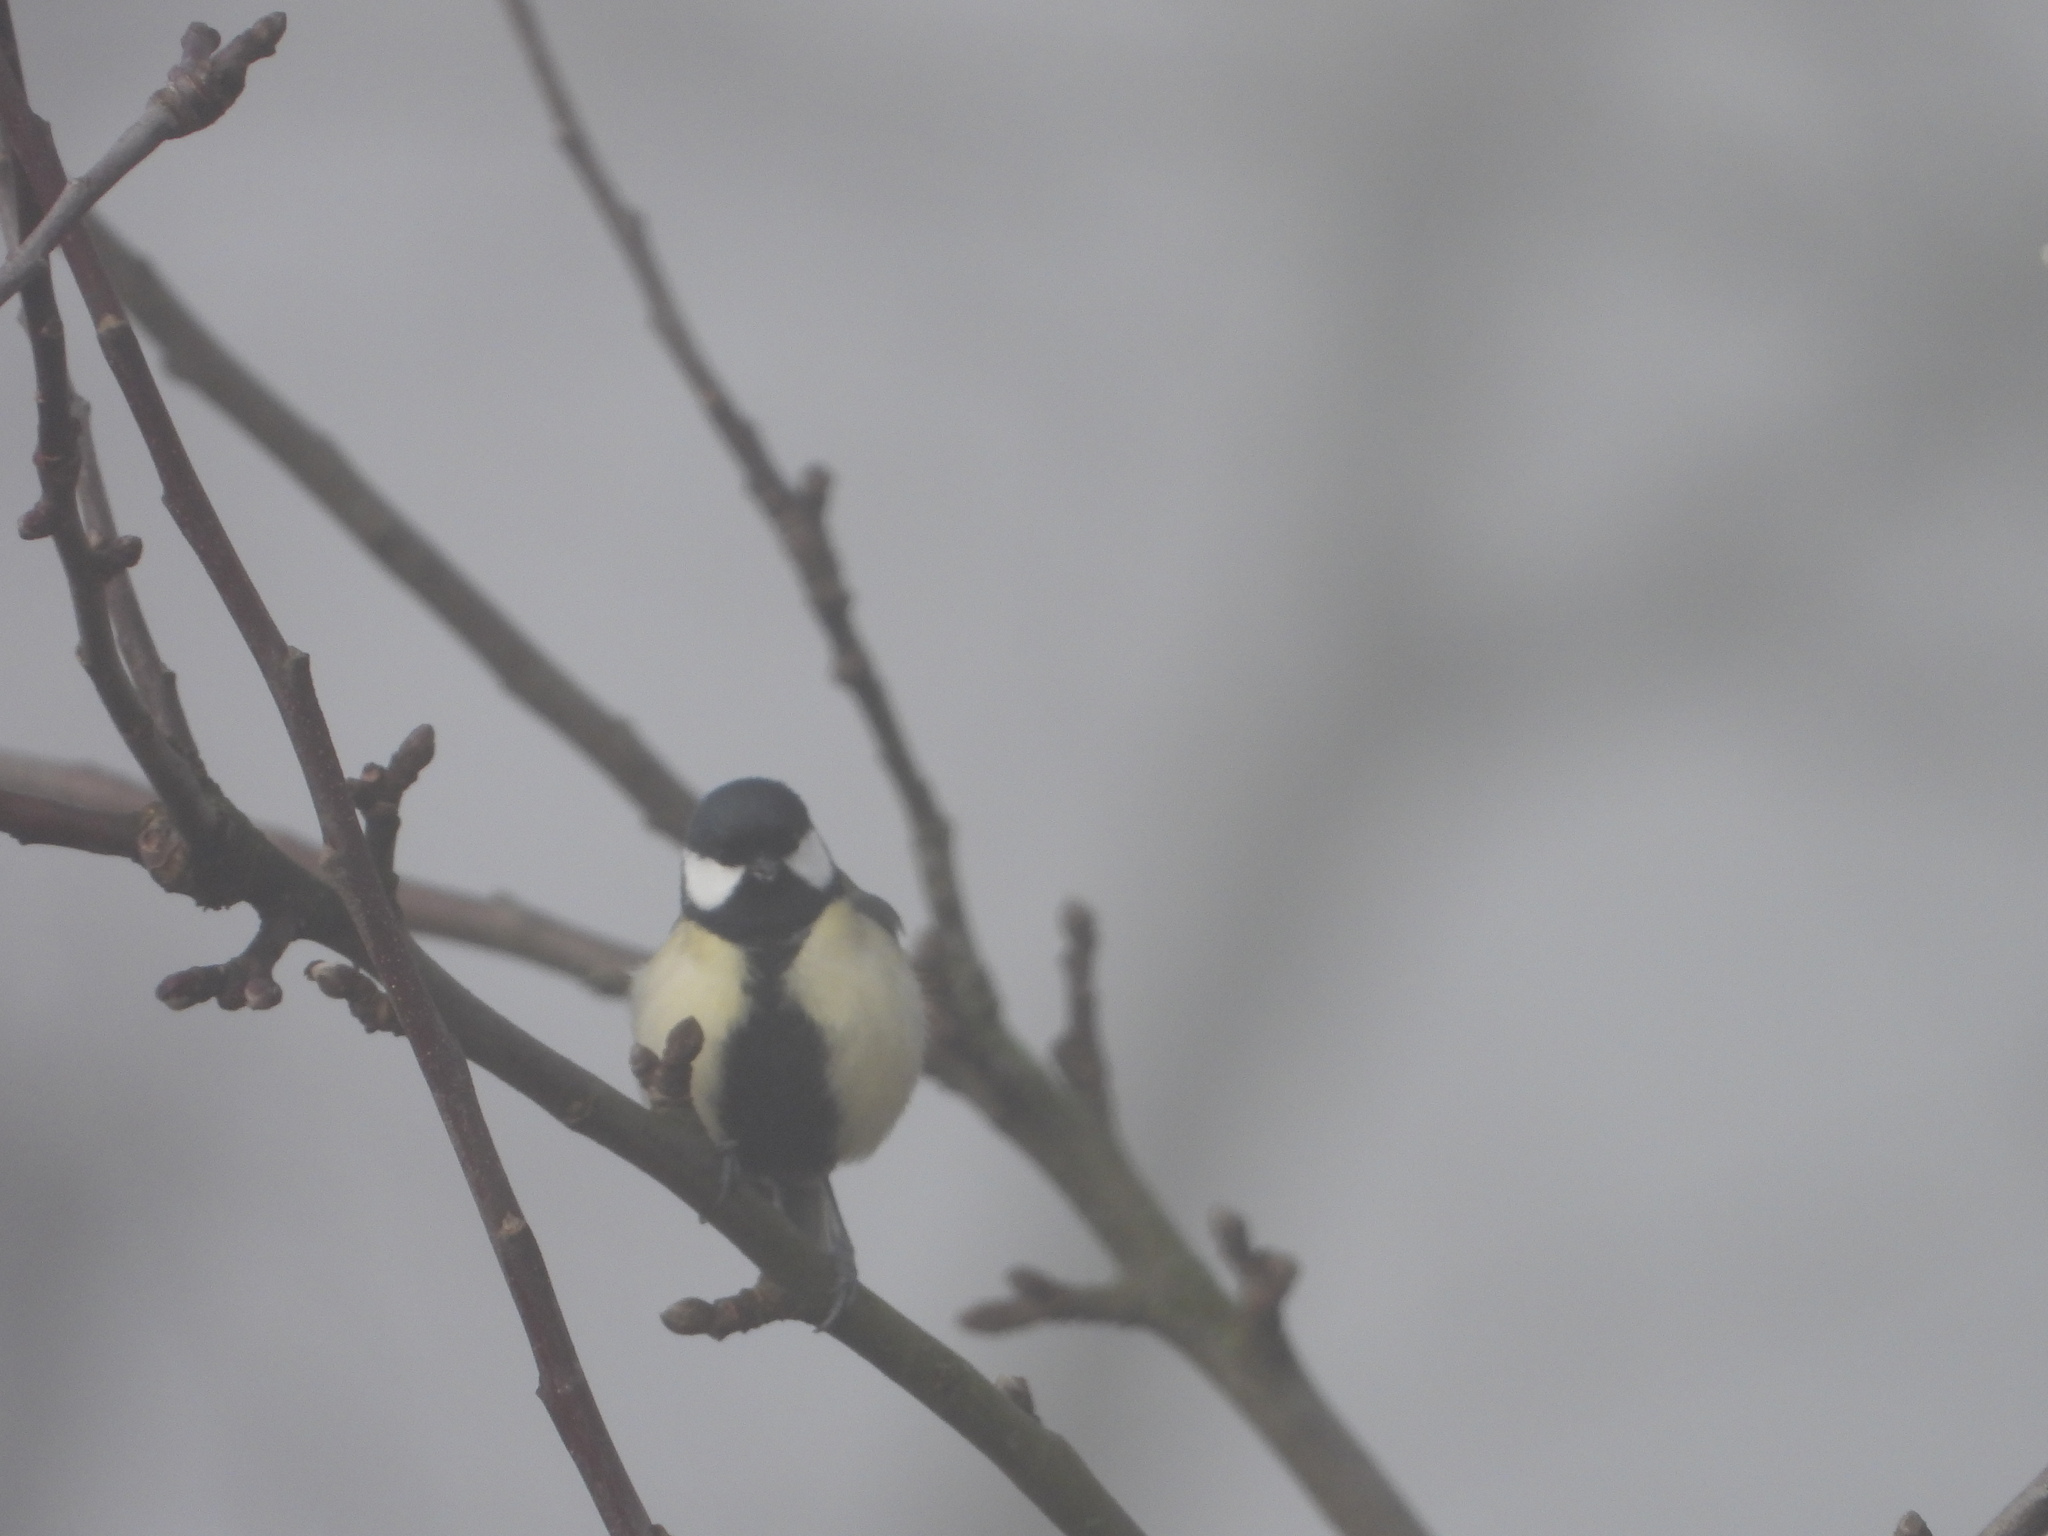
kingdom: Animalia
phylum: Chordata
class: Aves
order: Passeriformes
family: Paridae
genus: Parus
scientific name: Parus major
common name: Great tit
